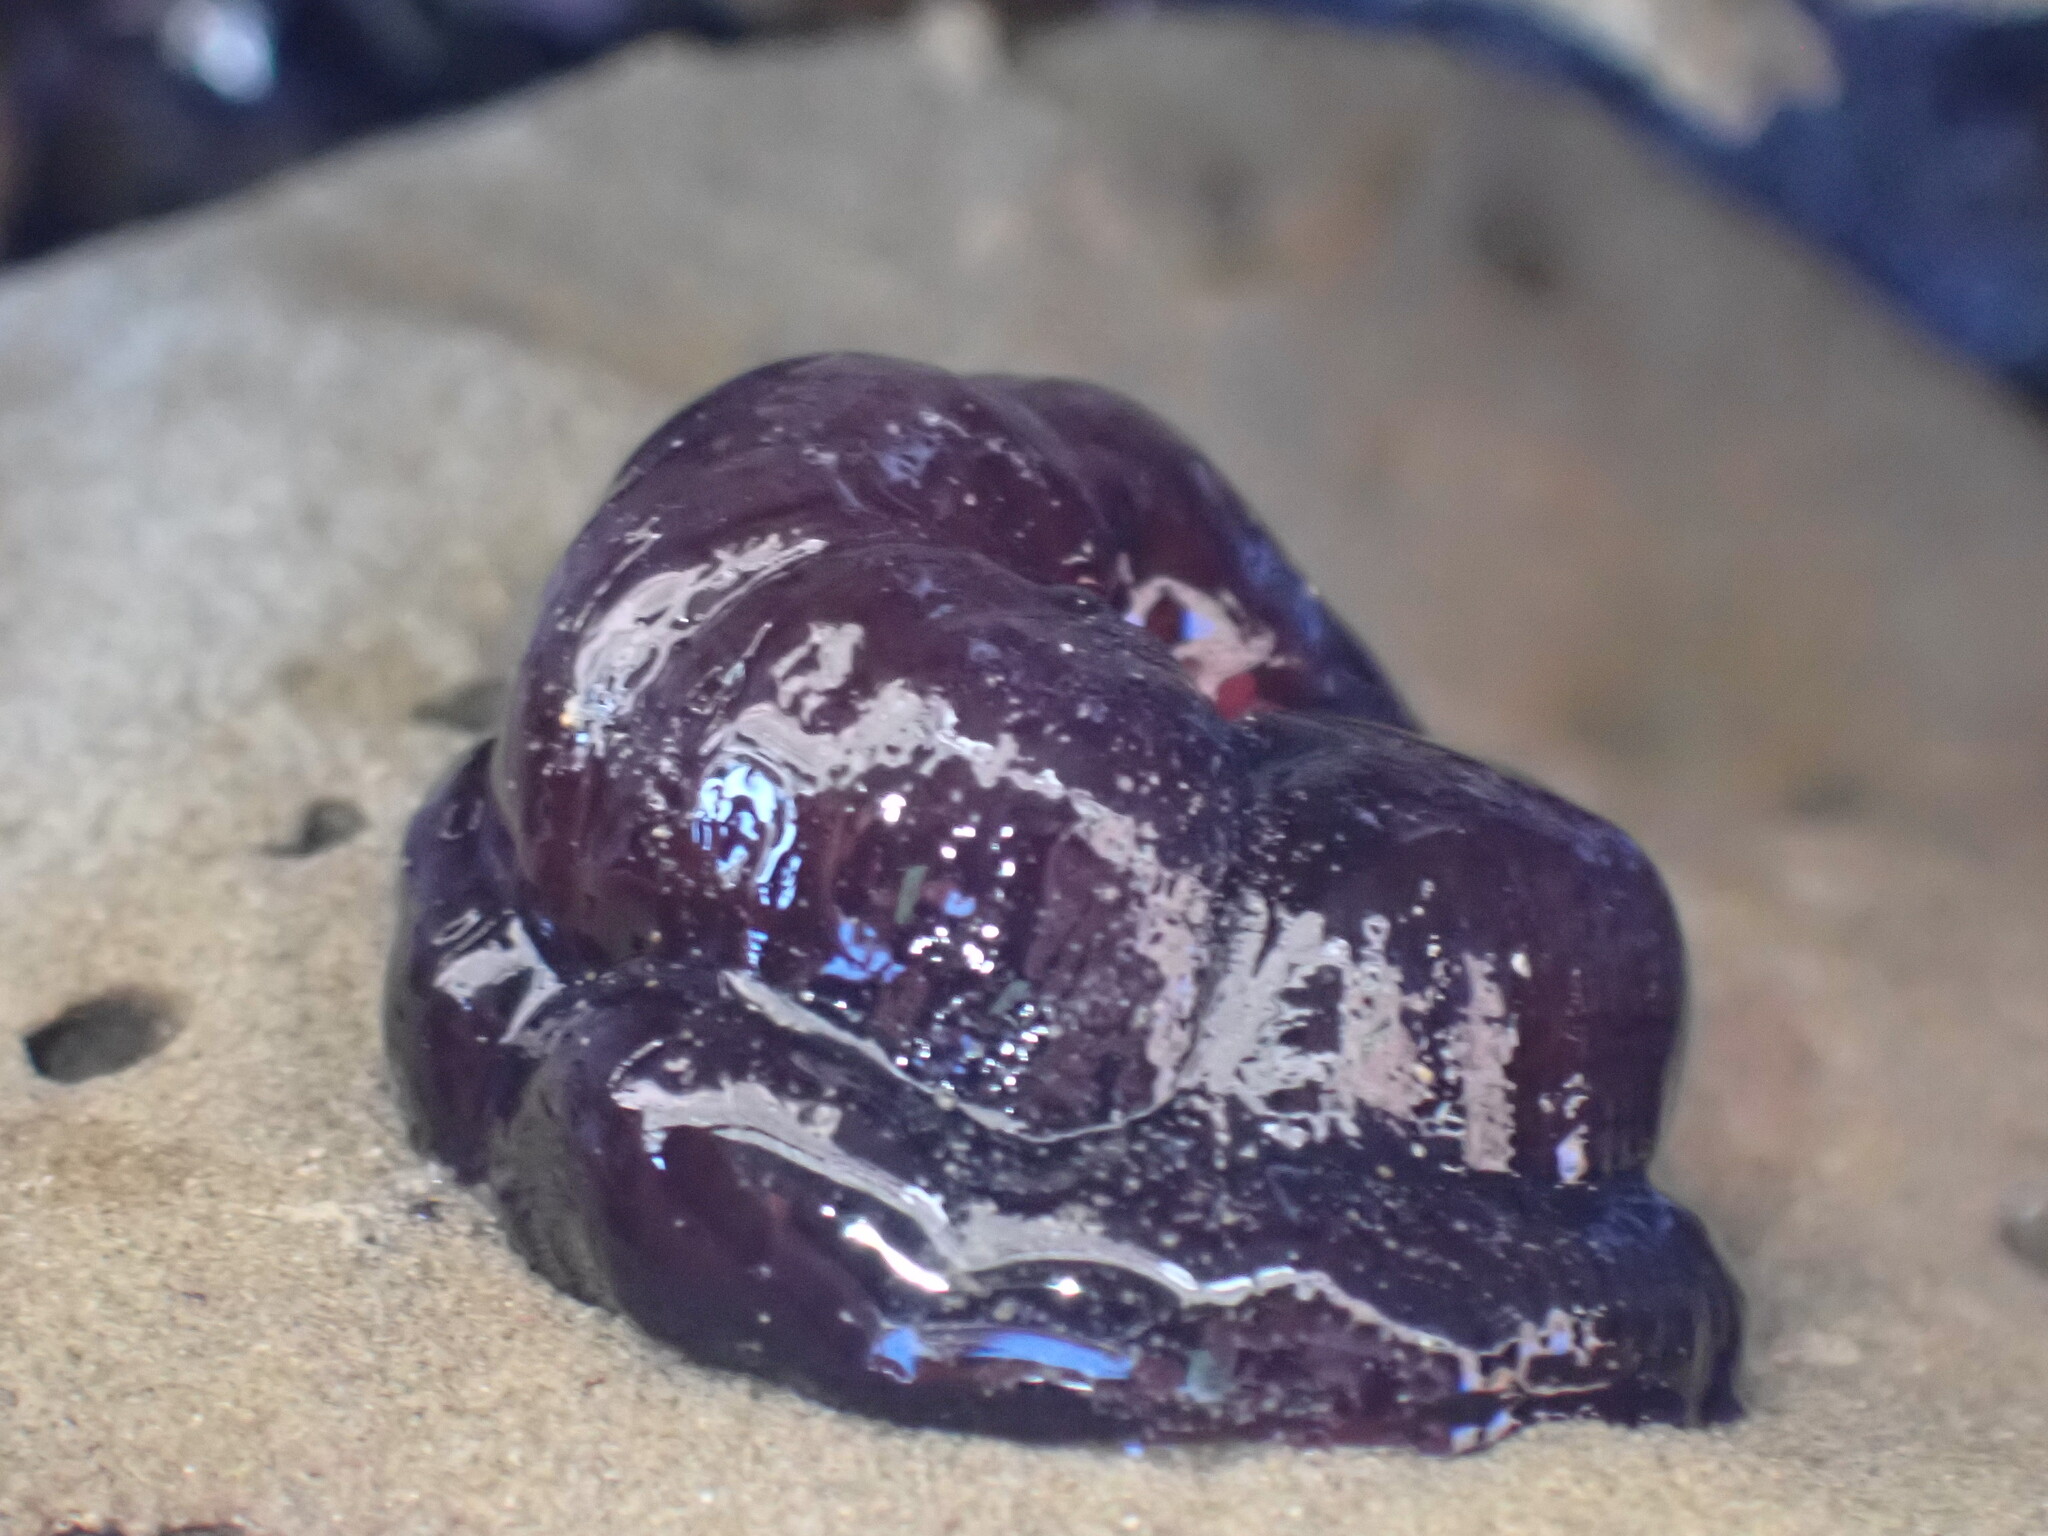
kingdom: Animalia
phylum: Cnidaria
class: Anthozoa
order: Actiniaria
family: Actiniidae
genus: Actinia
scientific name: Actinia tenebrosa
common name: Waratah anemone
